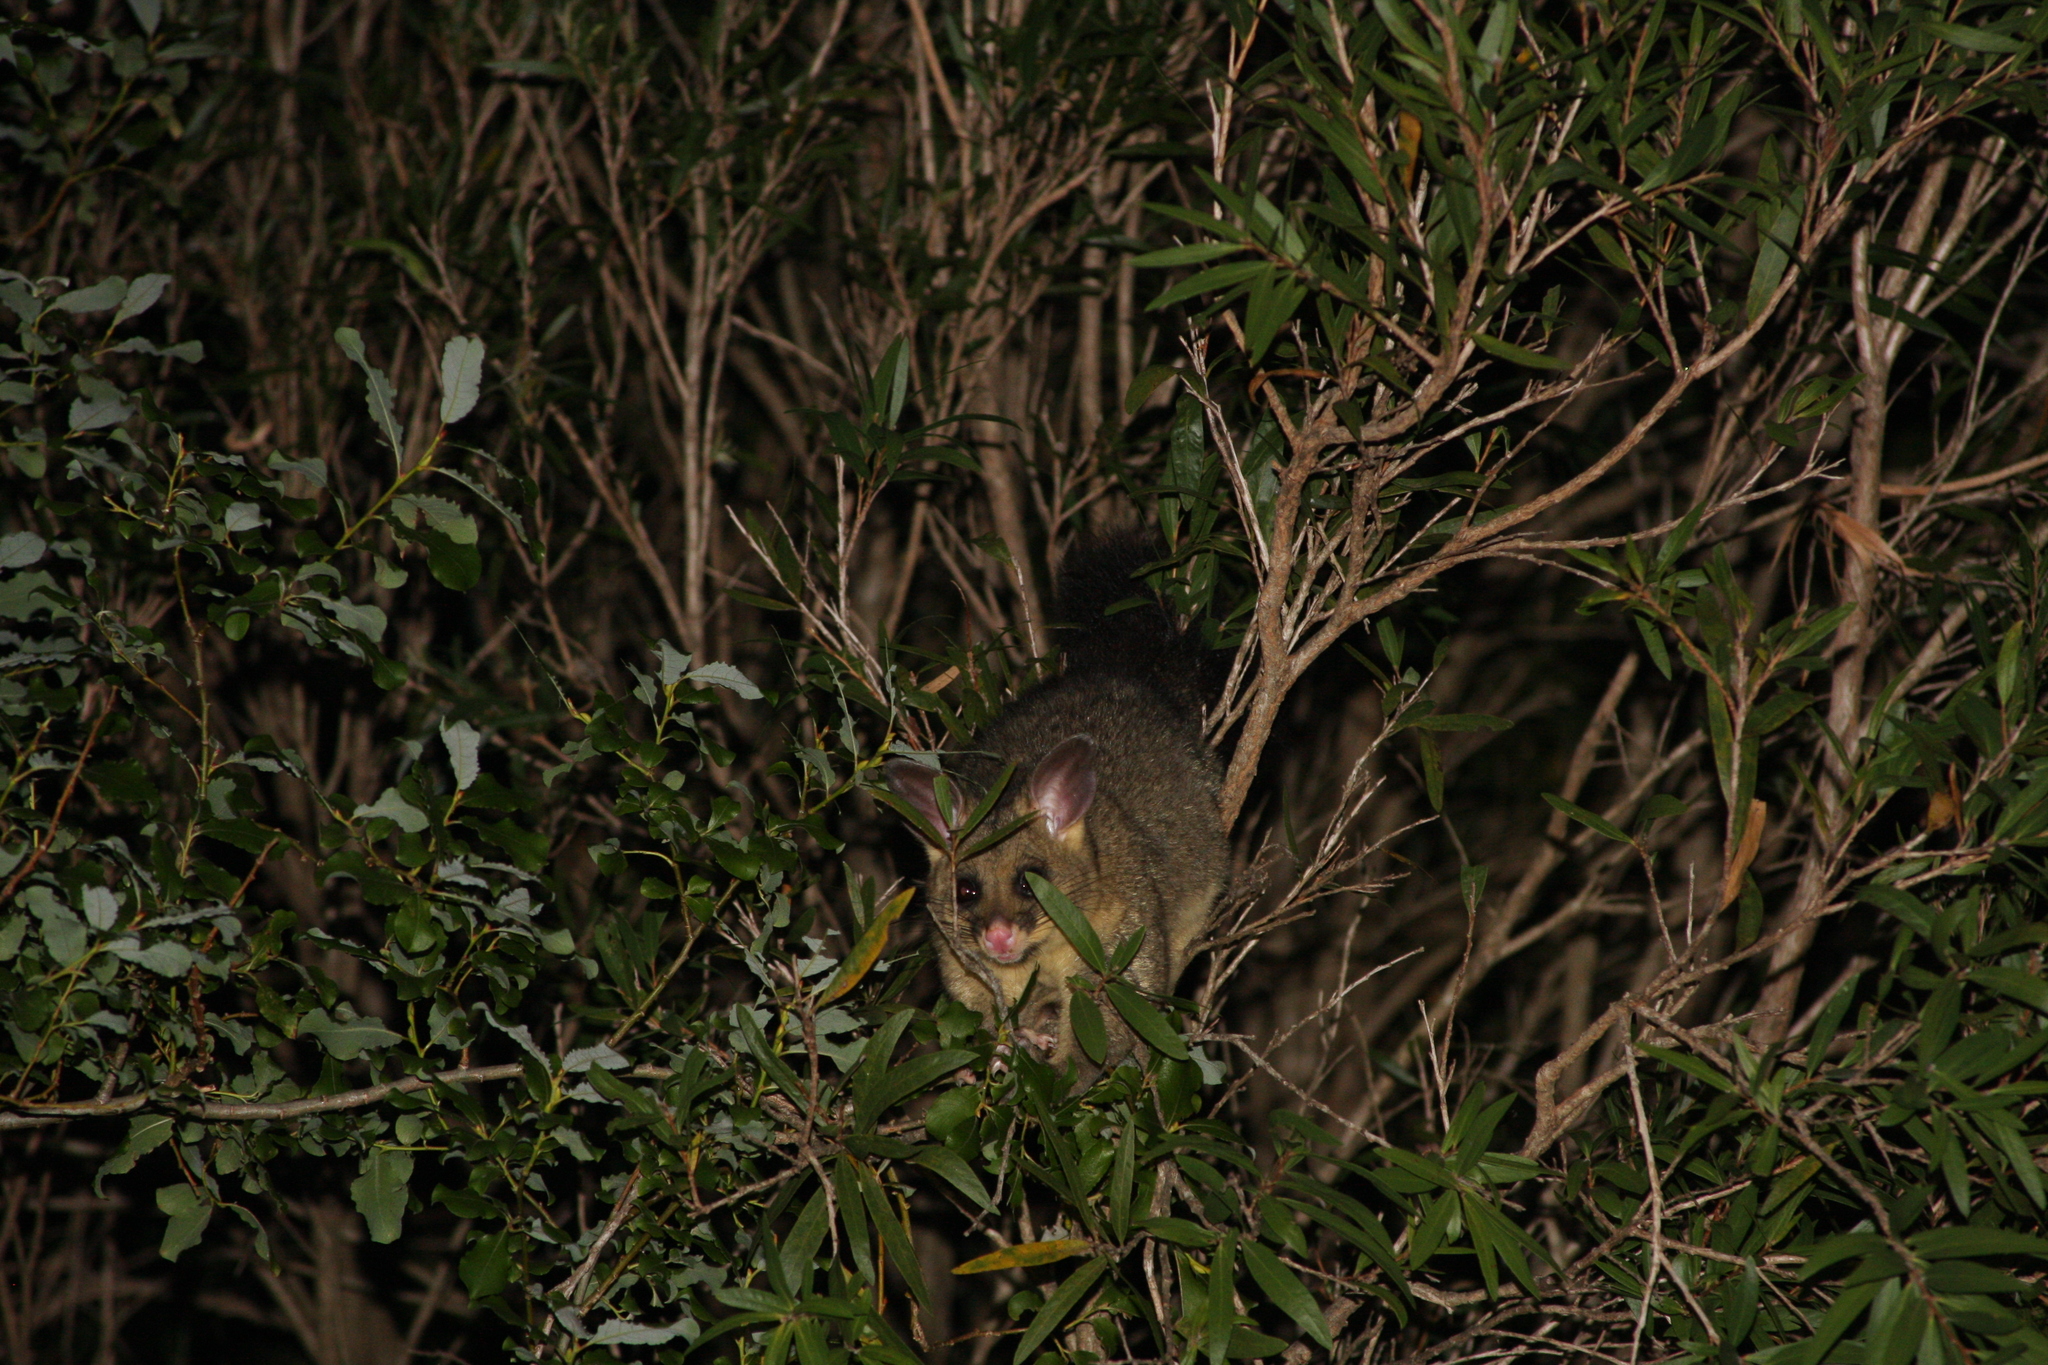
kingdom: Animalia
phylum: Chordata
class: Mammalia
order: Diprotodontia
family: Phalangeridae
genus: Trichosurus
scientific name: Trichosurus vulpecula
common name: Common brushtail
